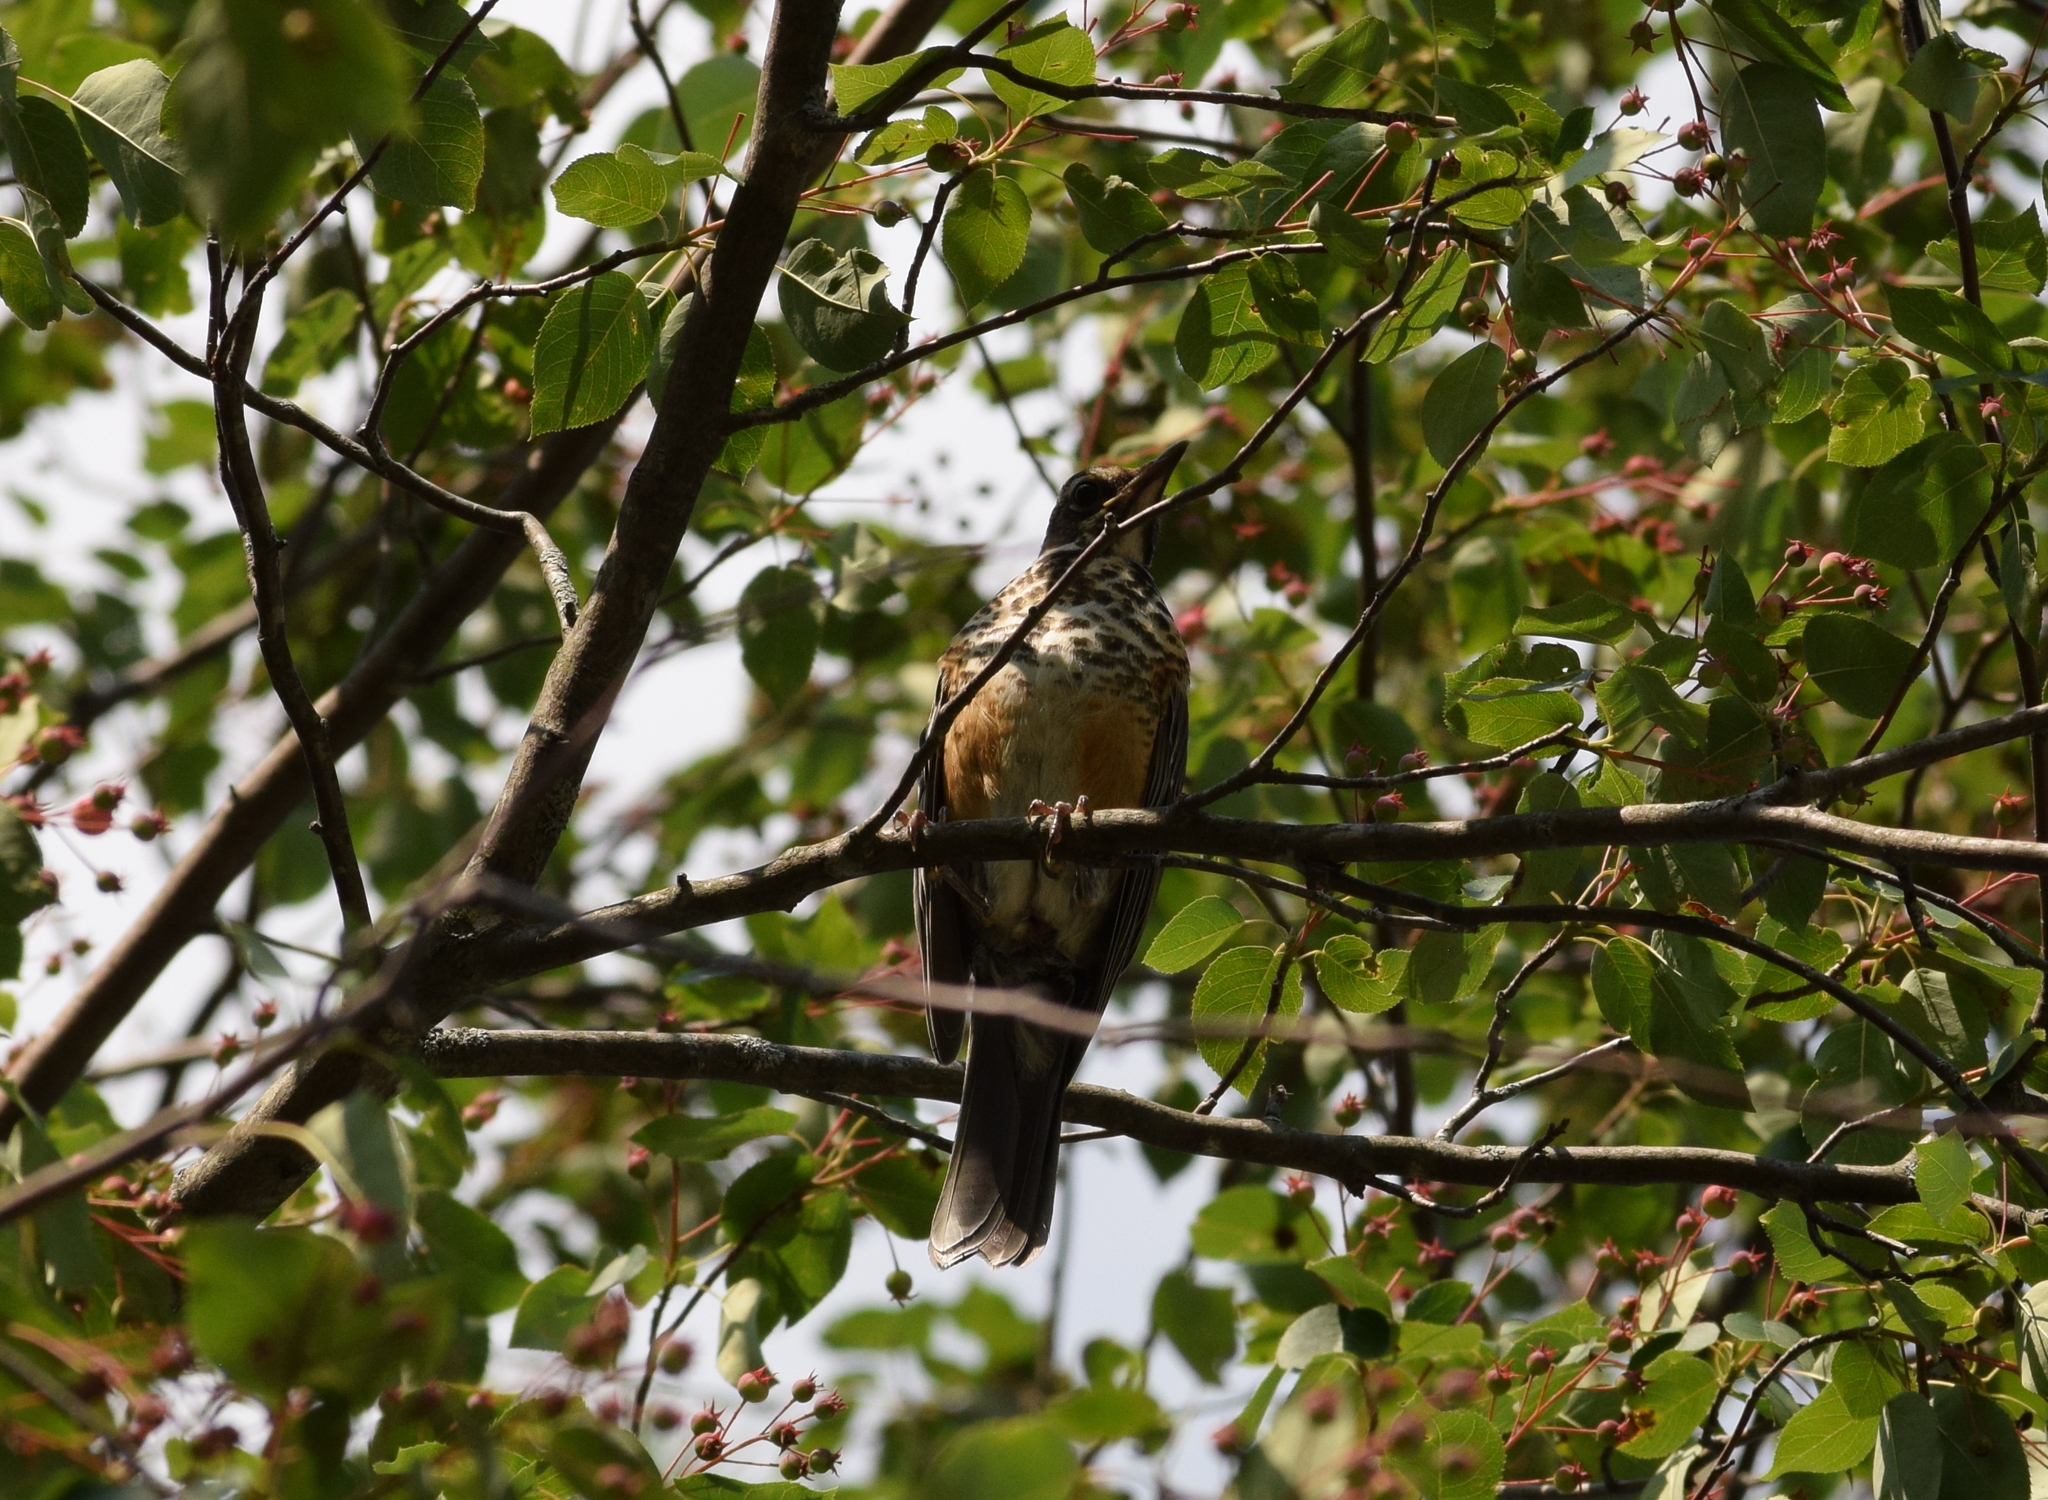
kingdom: Animalia
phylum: Chordata
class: Aves
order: Passeriformes
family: Turdidae
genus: Turdus
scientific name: Turdus migratorius
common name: American robin
